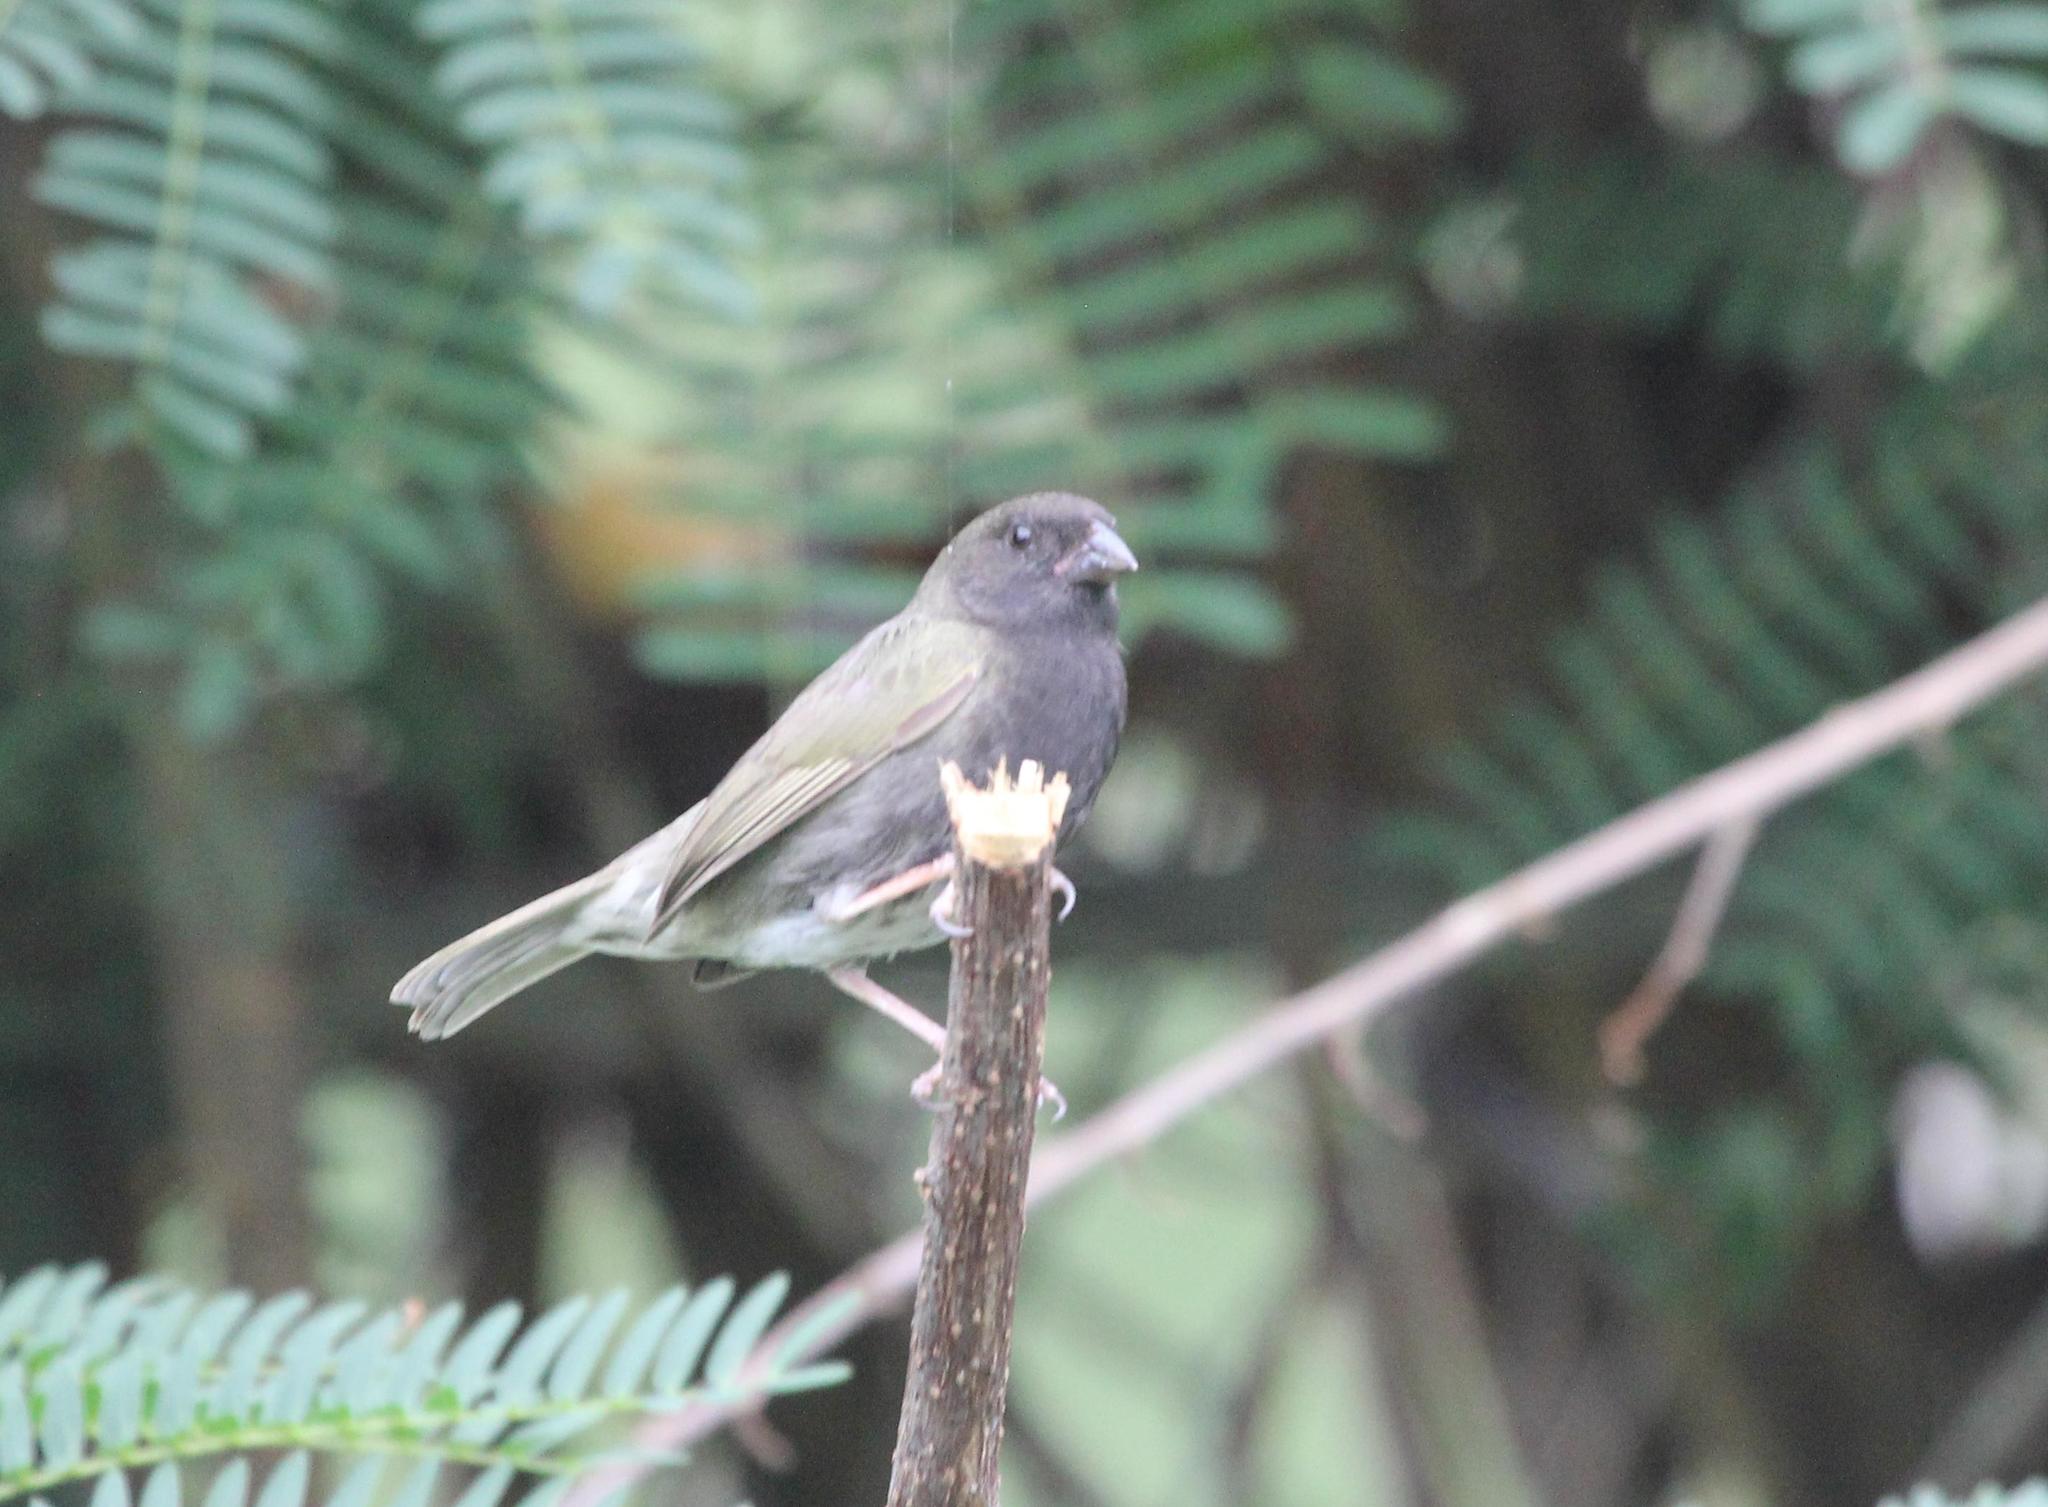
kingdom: Animalia
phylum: Chordata
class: Aves
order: Passeriformes
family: Thraupidae
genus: Melanospiza
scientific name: Melanospiza bicolor
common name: Black-faced grassquit
